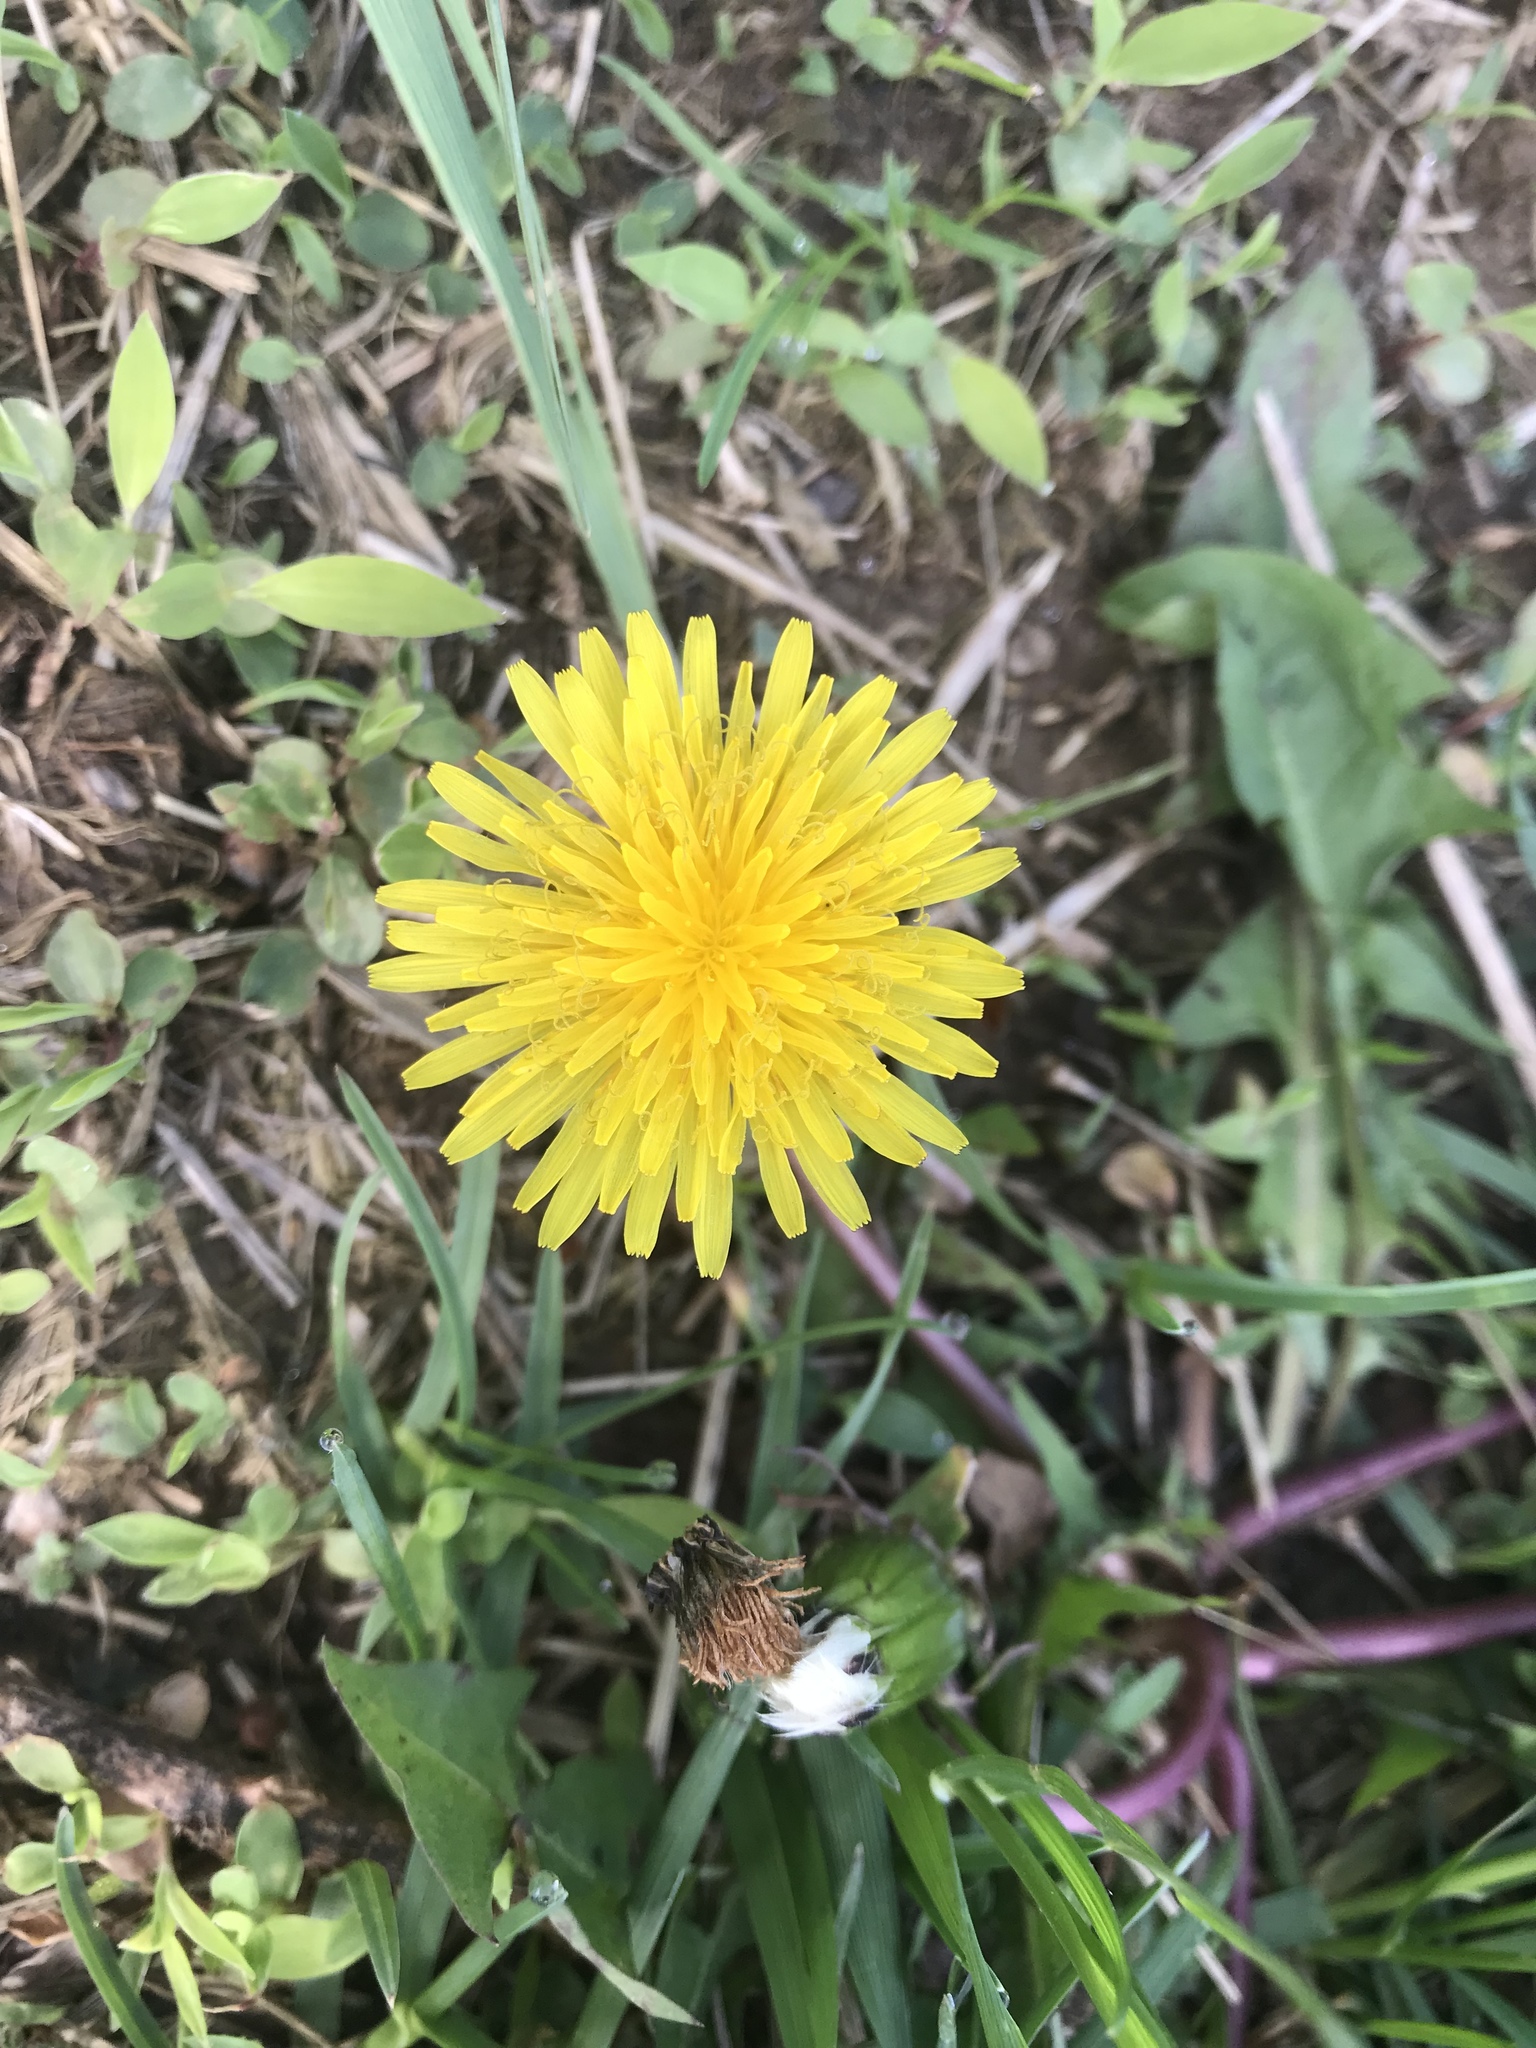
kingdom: Plantae
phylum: Tracheophyta
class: Magnoliopsida
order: Asterales
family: Asteraceae
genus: Taraxacum
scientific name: Taraxacum officinale
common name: Common dandelion
